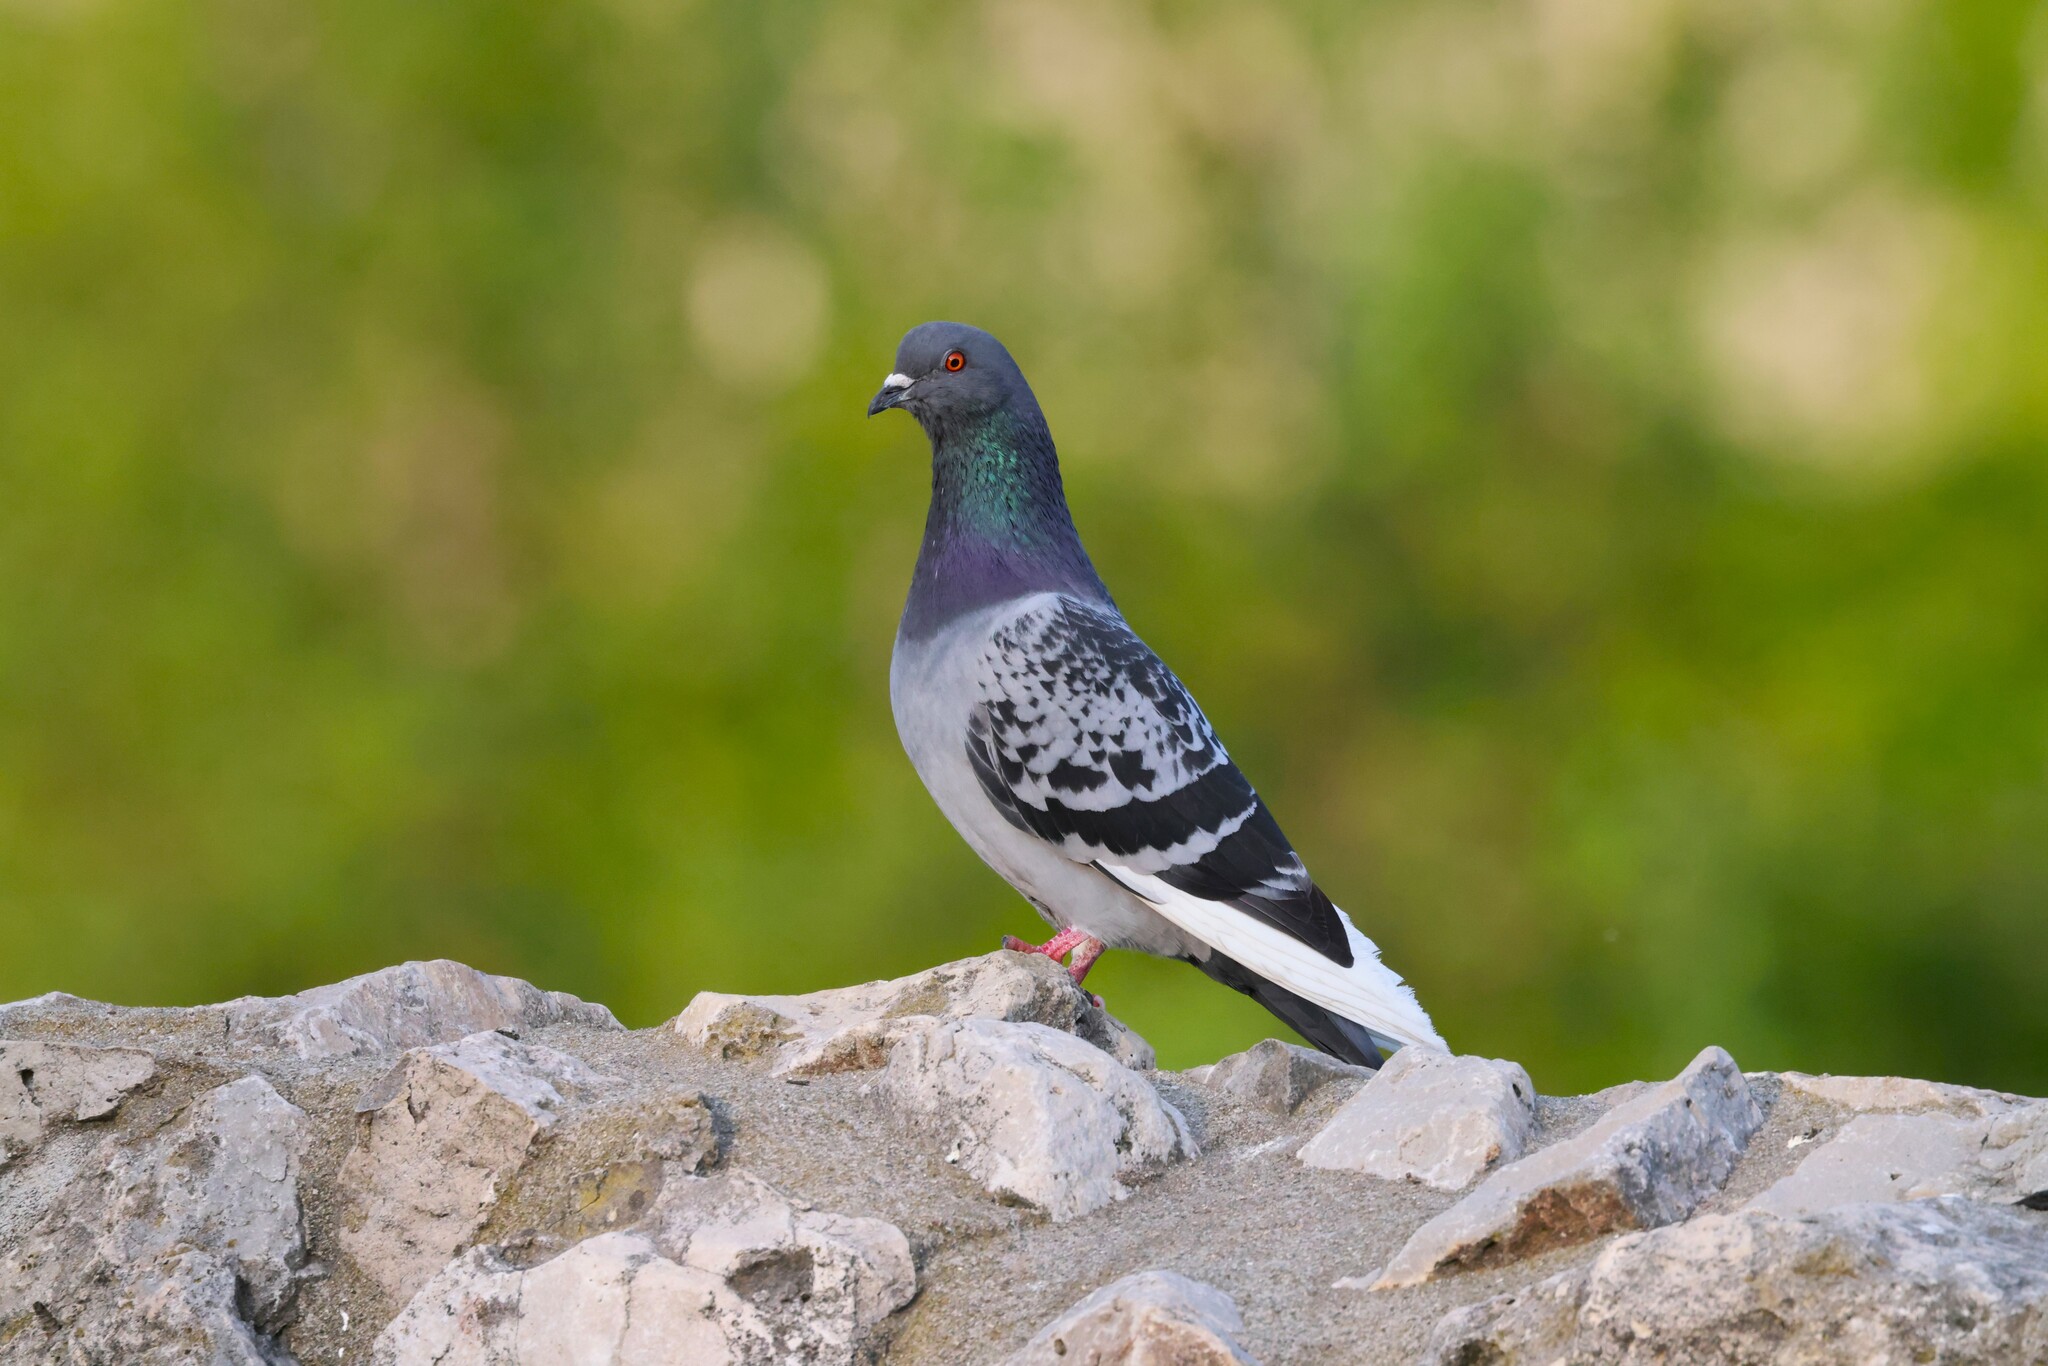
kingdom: Animalia
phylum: Chordata
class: Aves
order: Columbiformes
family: Columbidae
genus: Columba
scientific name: Columba livia
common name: Rock pigeon
